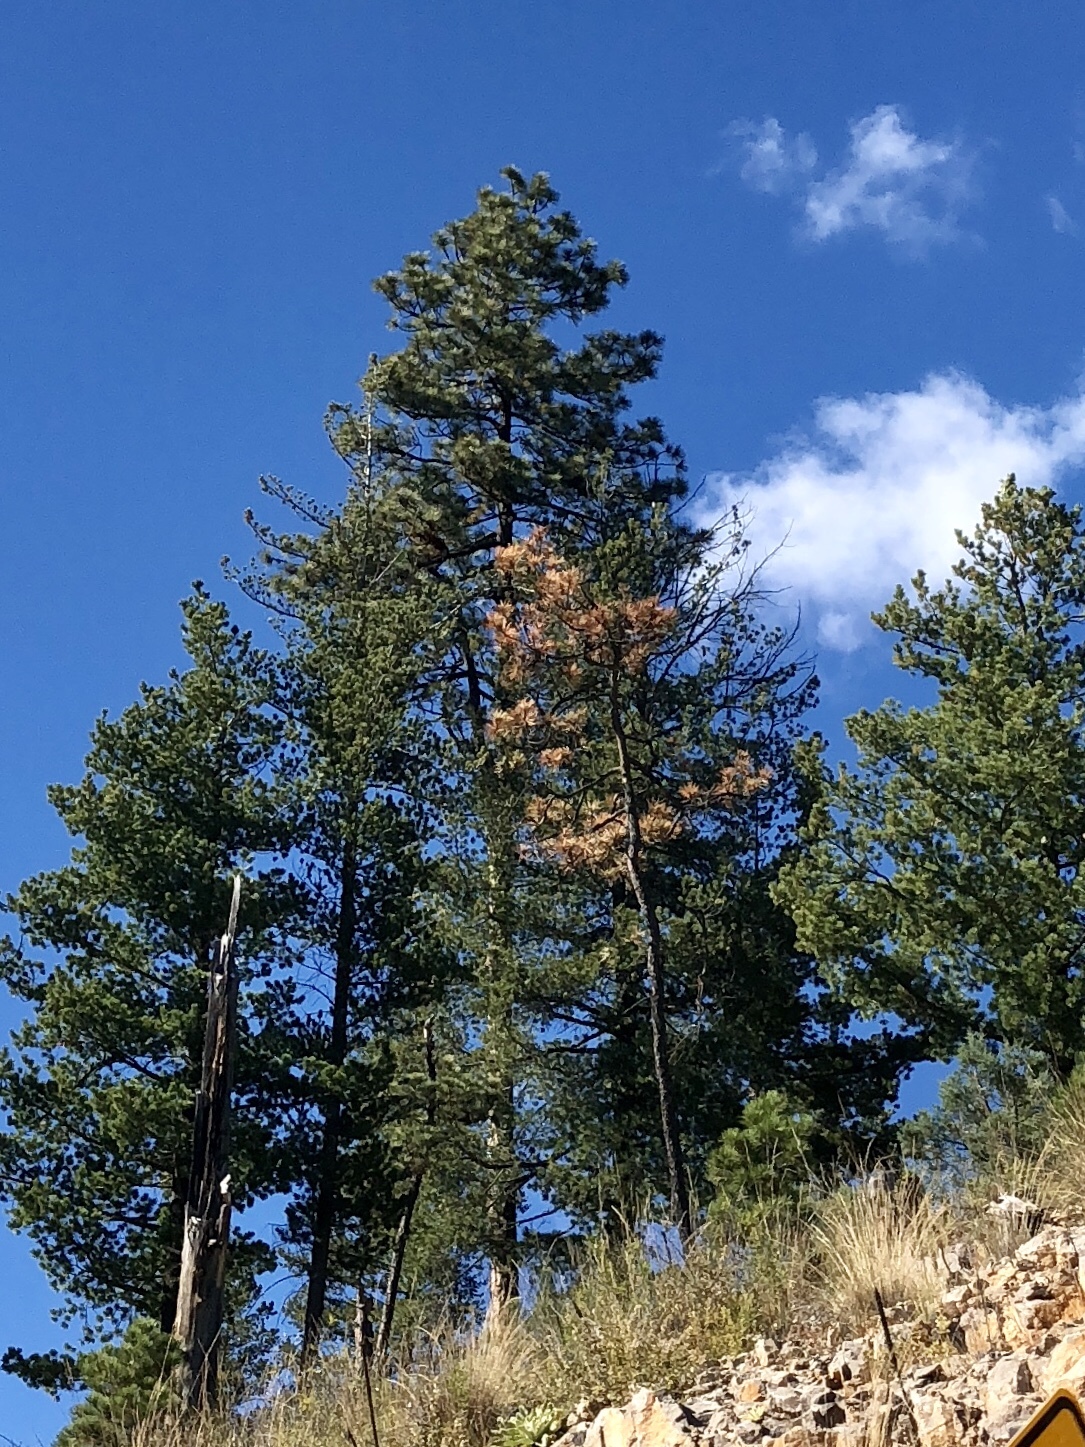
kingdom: Plantae
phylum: Tracheophyta
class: Pinopsida
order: Pinales
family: Pinaceae
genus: Pinus
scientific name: Pinus ponderosa
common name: Western yellow-pine
